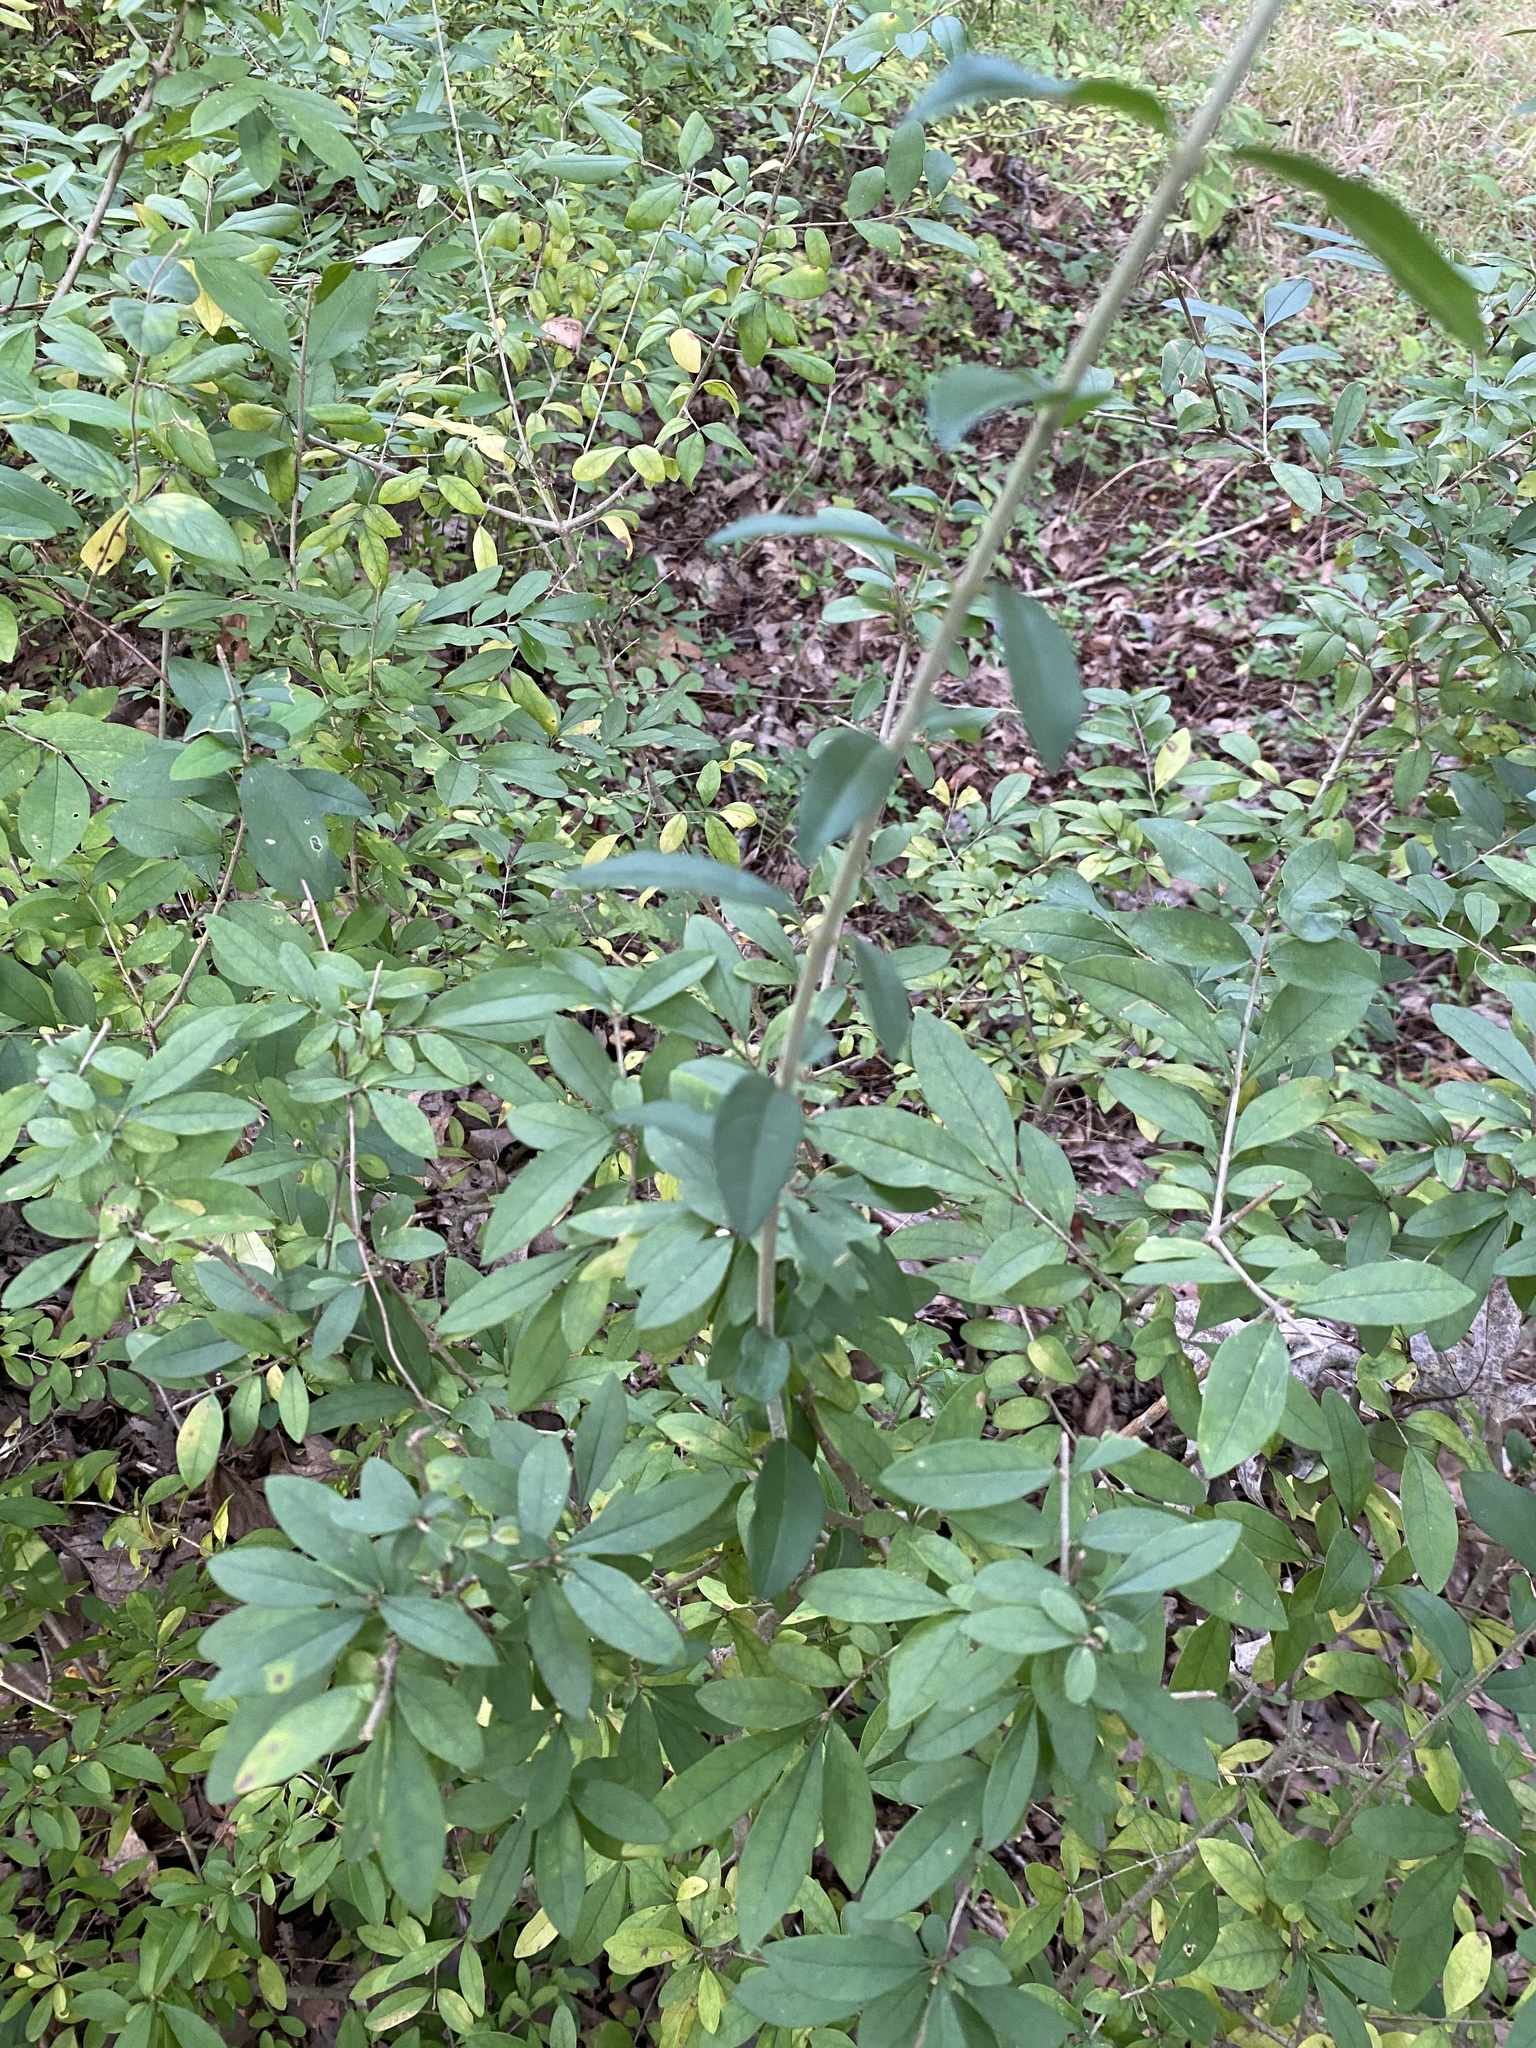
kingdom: Plantae
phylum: Tracheophyta
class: Magnoliopsida
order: Lamiales
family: Oleaceae
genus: Ligustrum
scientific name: Ligustrum obtusifolium
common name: Border privet
